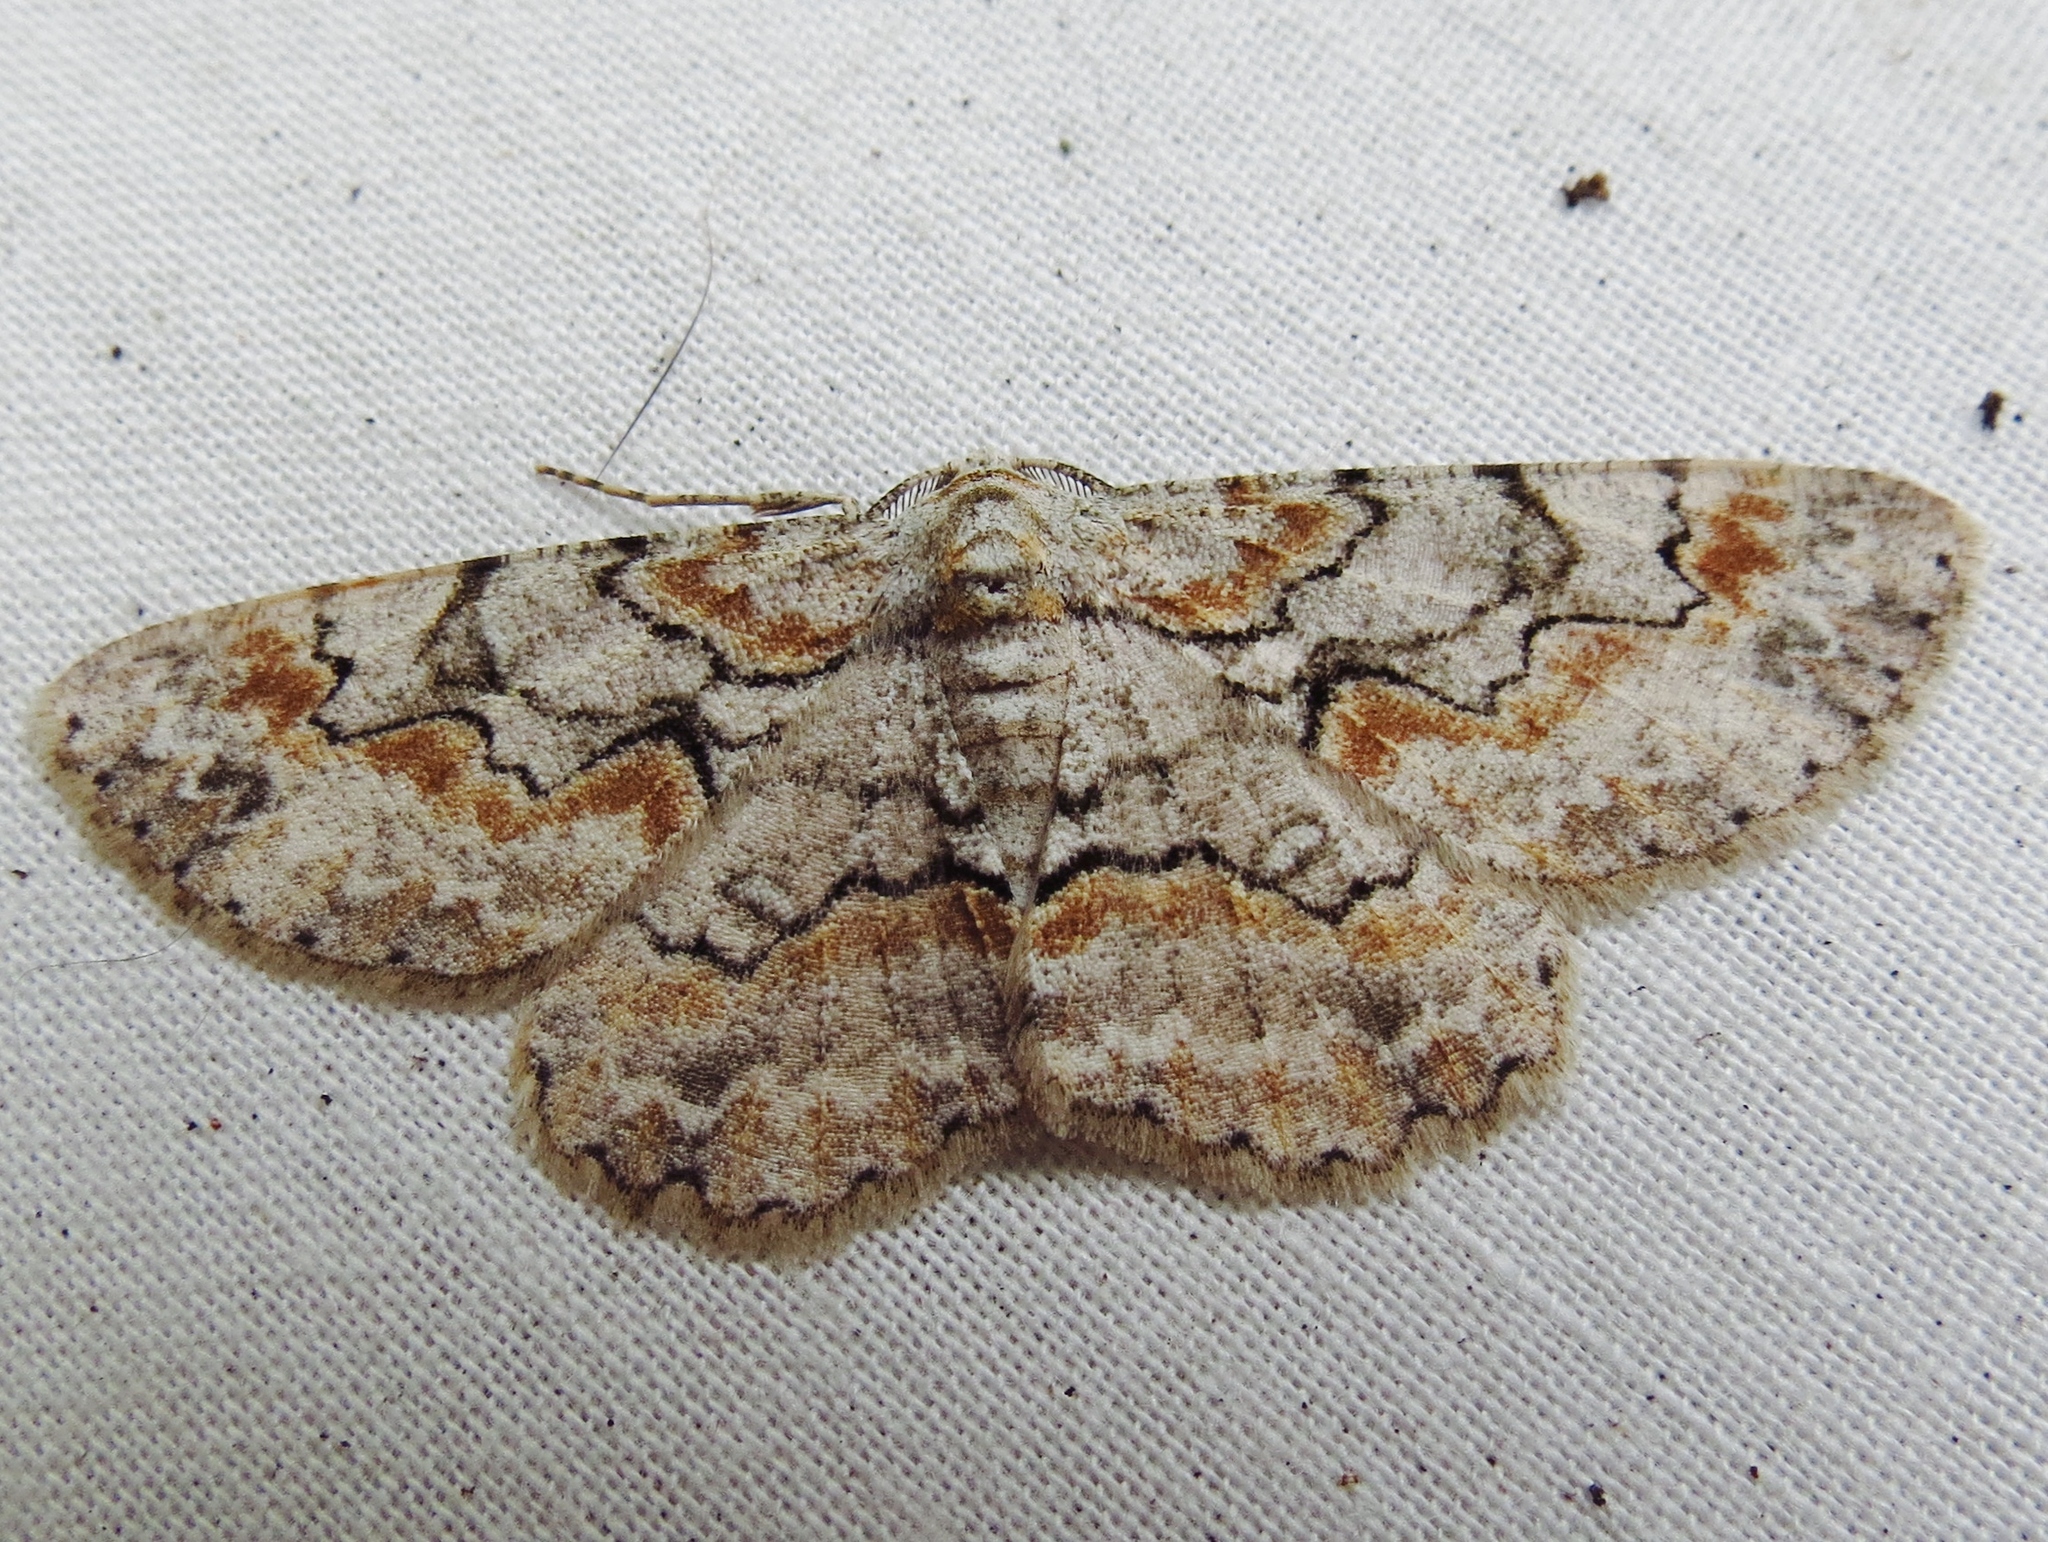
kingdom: Animalia
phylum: Arthropoda
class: Insecta
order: Lepidoptera
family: Geometridae
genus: Iridopsis
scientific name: Iridopsis defectaria
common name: Brown-shaded gray
